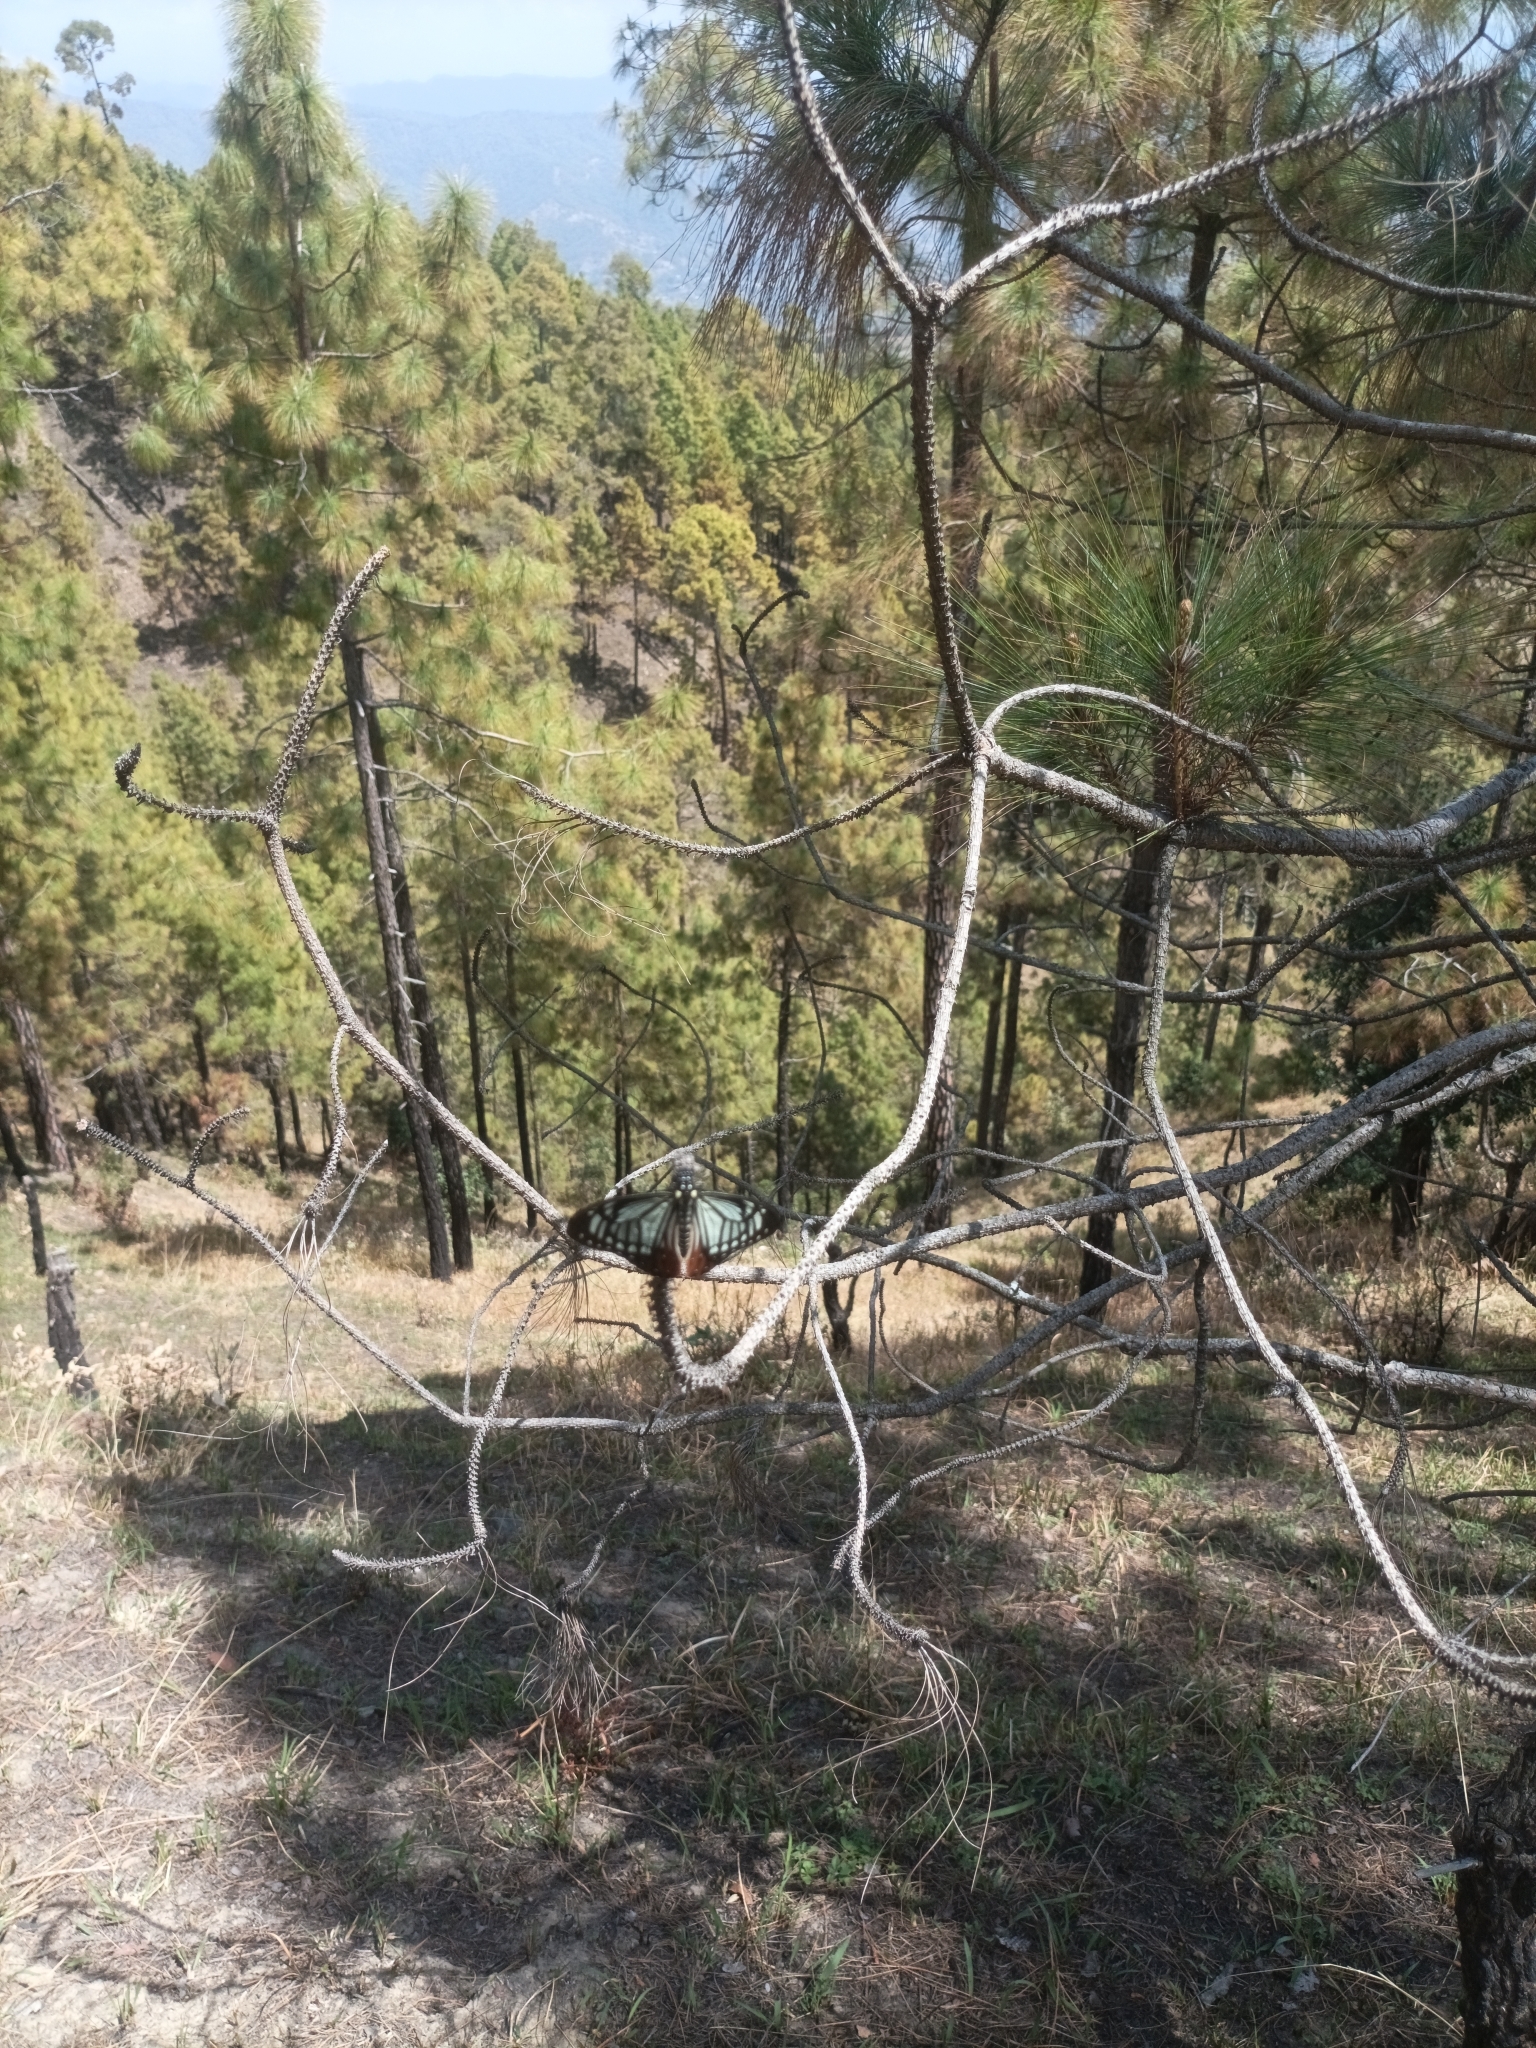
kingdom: Animalia
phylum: Arthropoda
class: Insecta
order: Lepidoptera
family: Lycaenidae
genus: Plebicula
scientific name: Plebicula escheri
